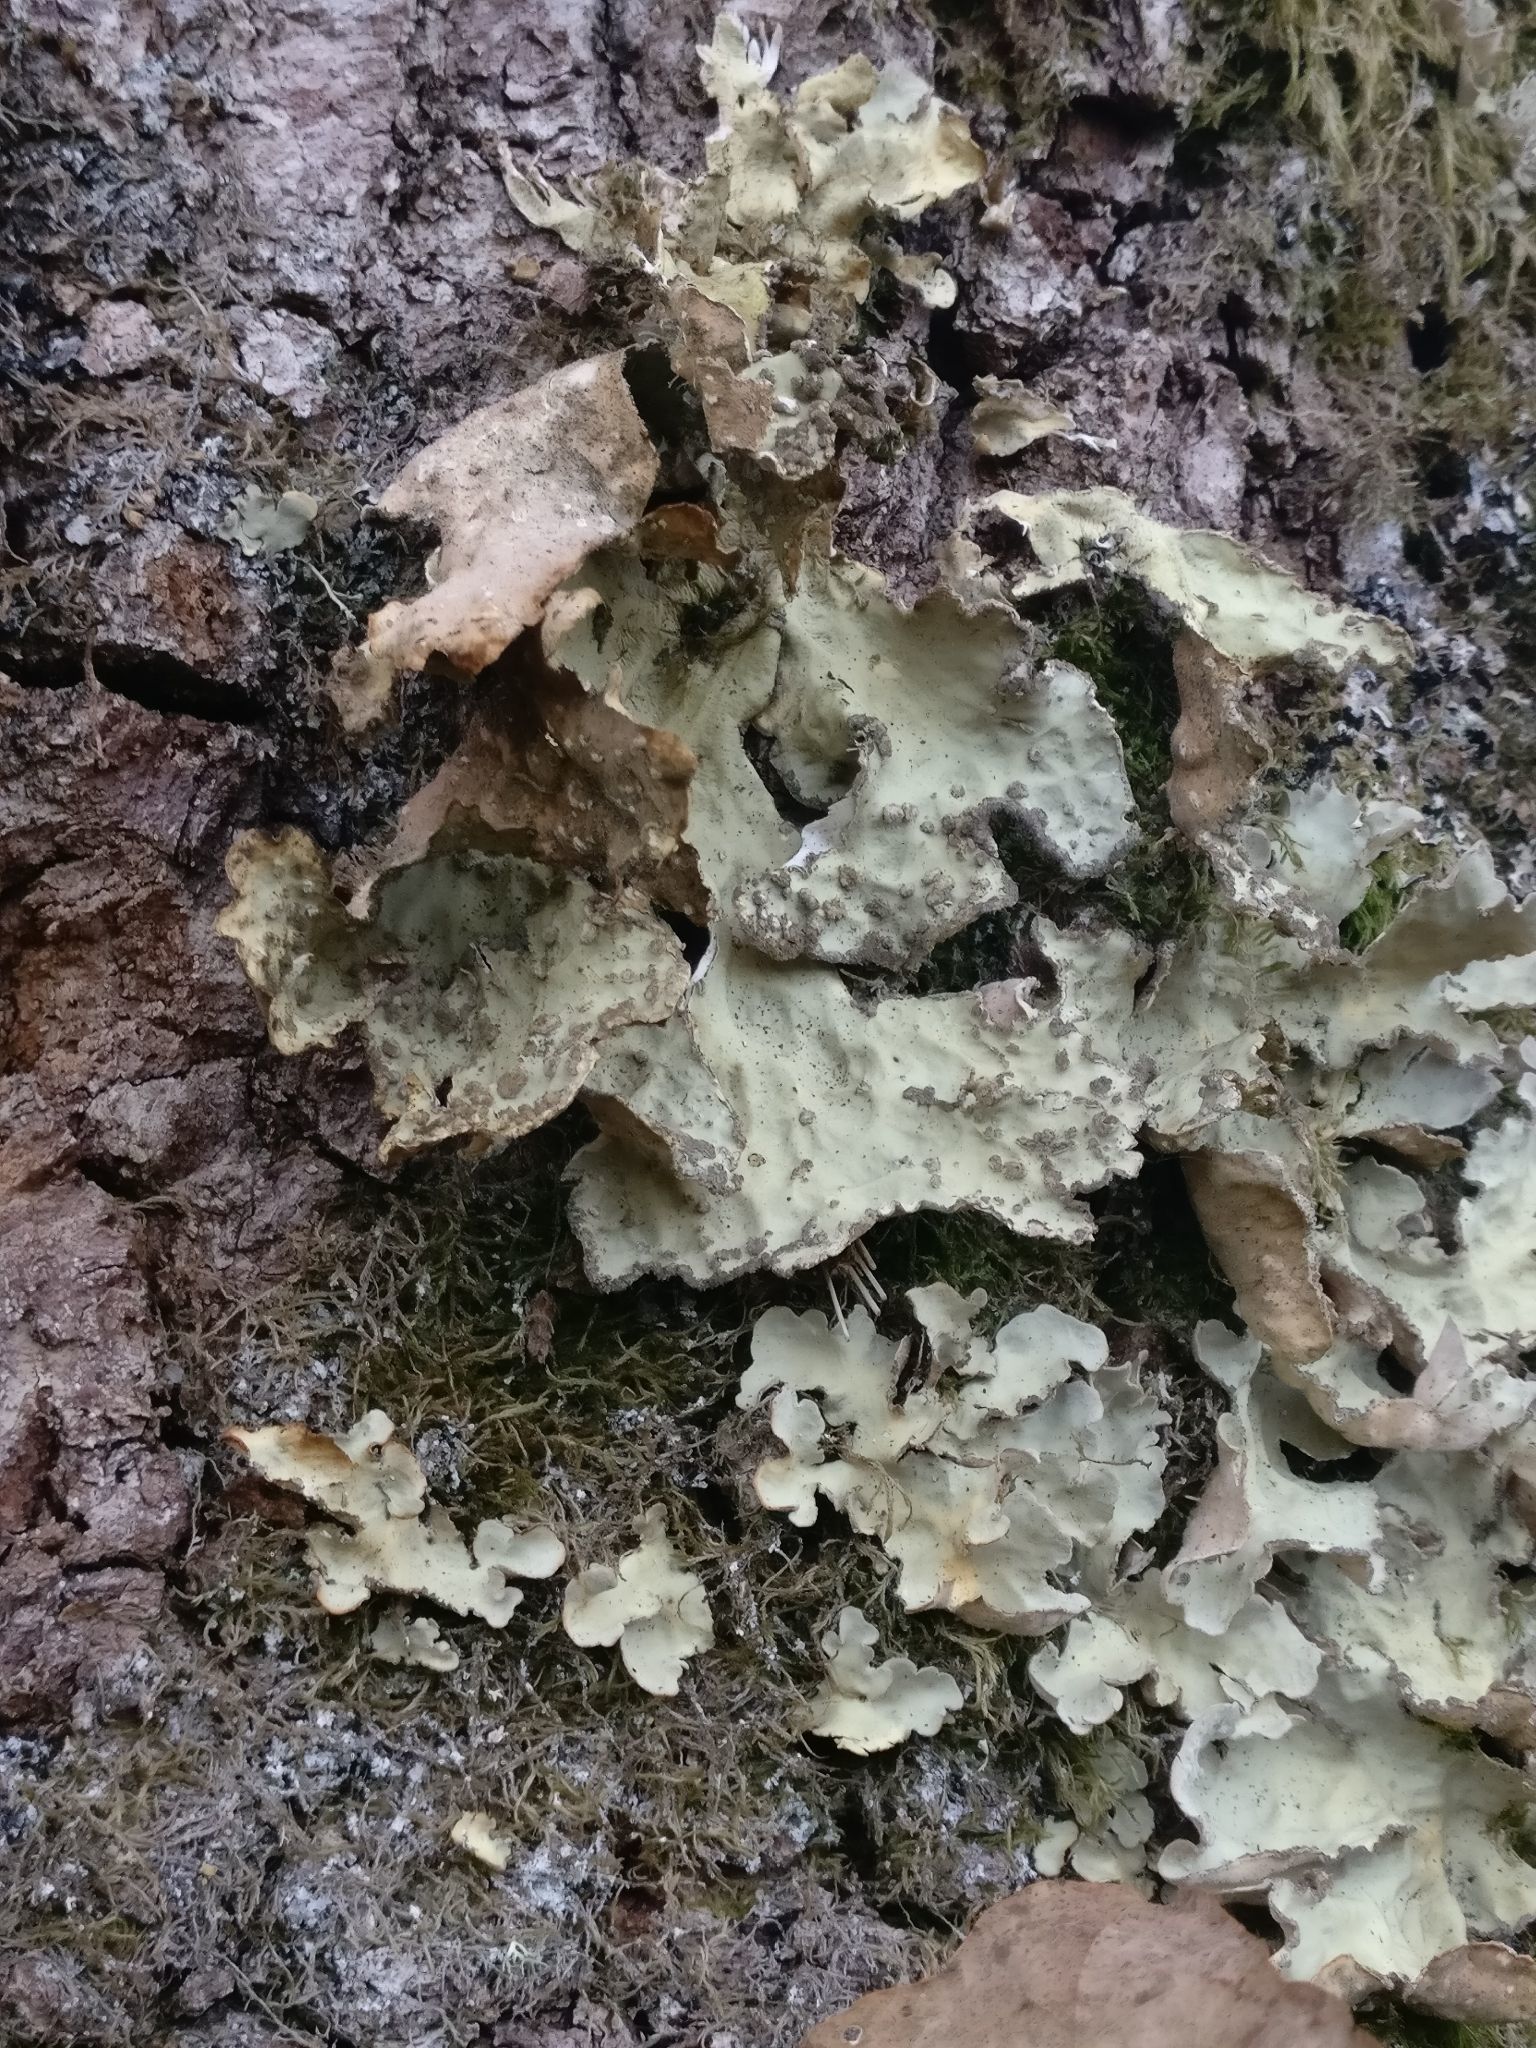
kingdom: Fungi
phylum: Ascomycota
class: Lecanoromycetes
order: Peltigerales
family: Lobariaceae
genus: Lobarina
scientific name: Lobarina scrobiculata
